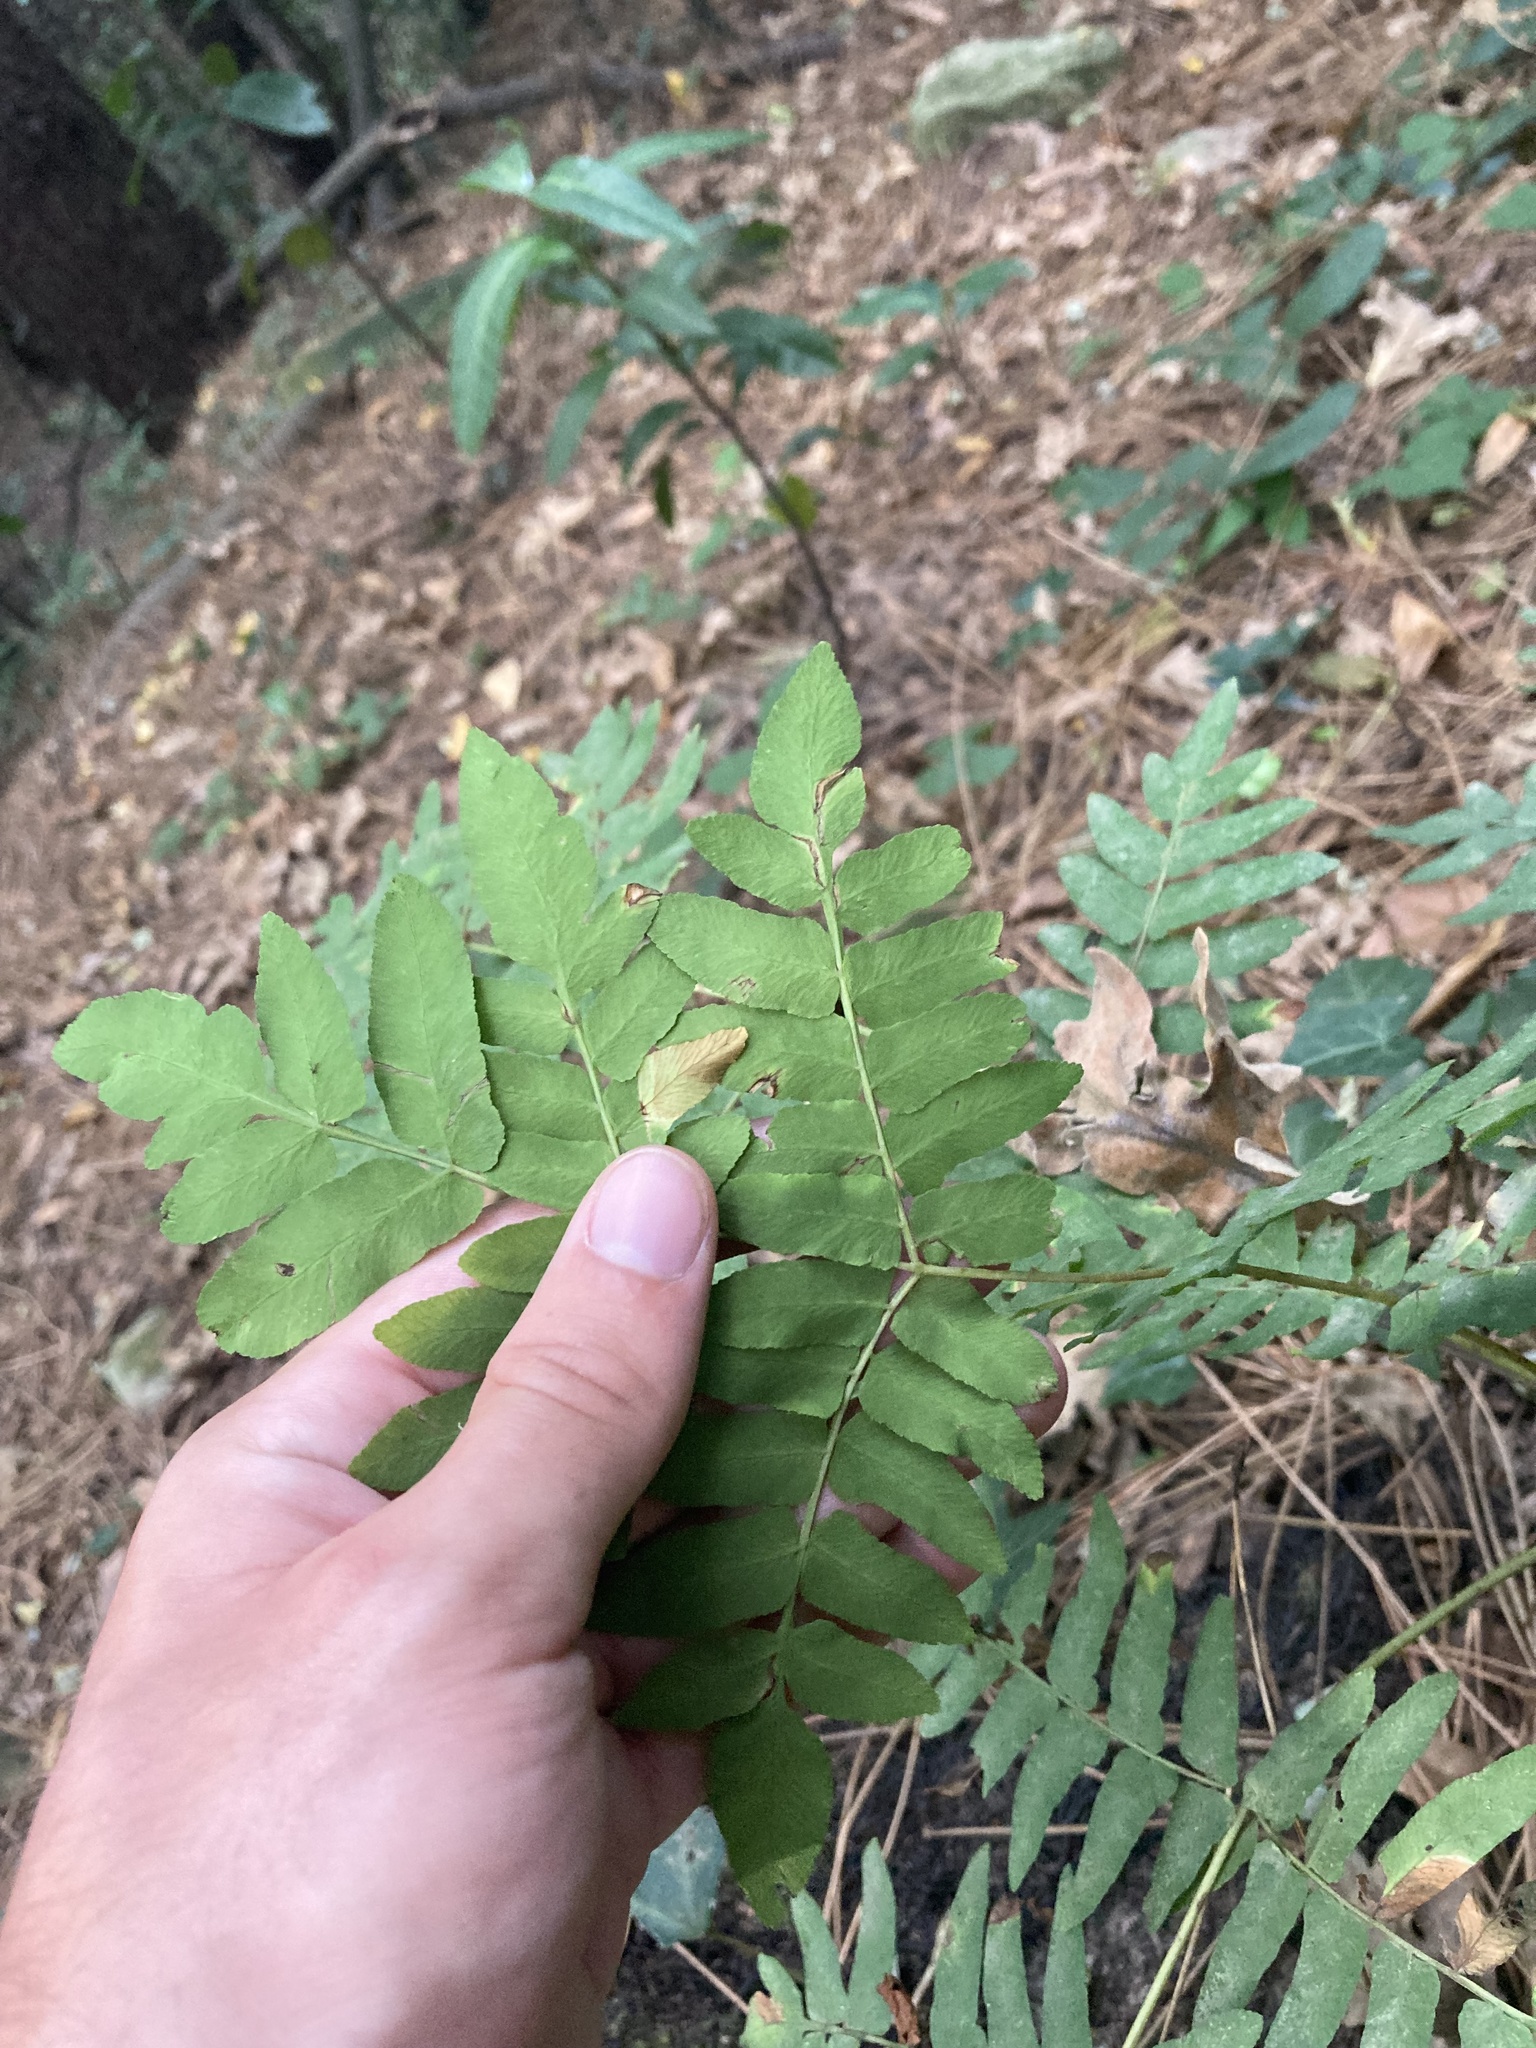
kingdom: Plantae
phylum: Tracheophyta
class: Polypodiopsida
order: Osmundales
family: Osmundaceae
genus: Osmunda
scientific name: Osmunda regalis
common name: Royal fern
